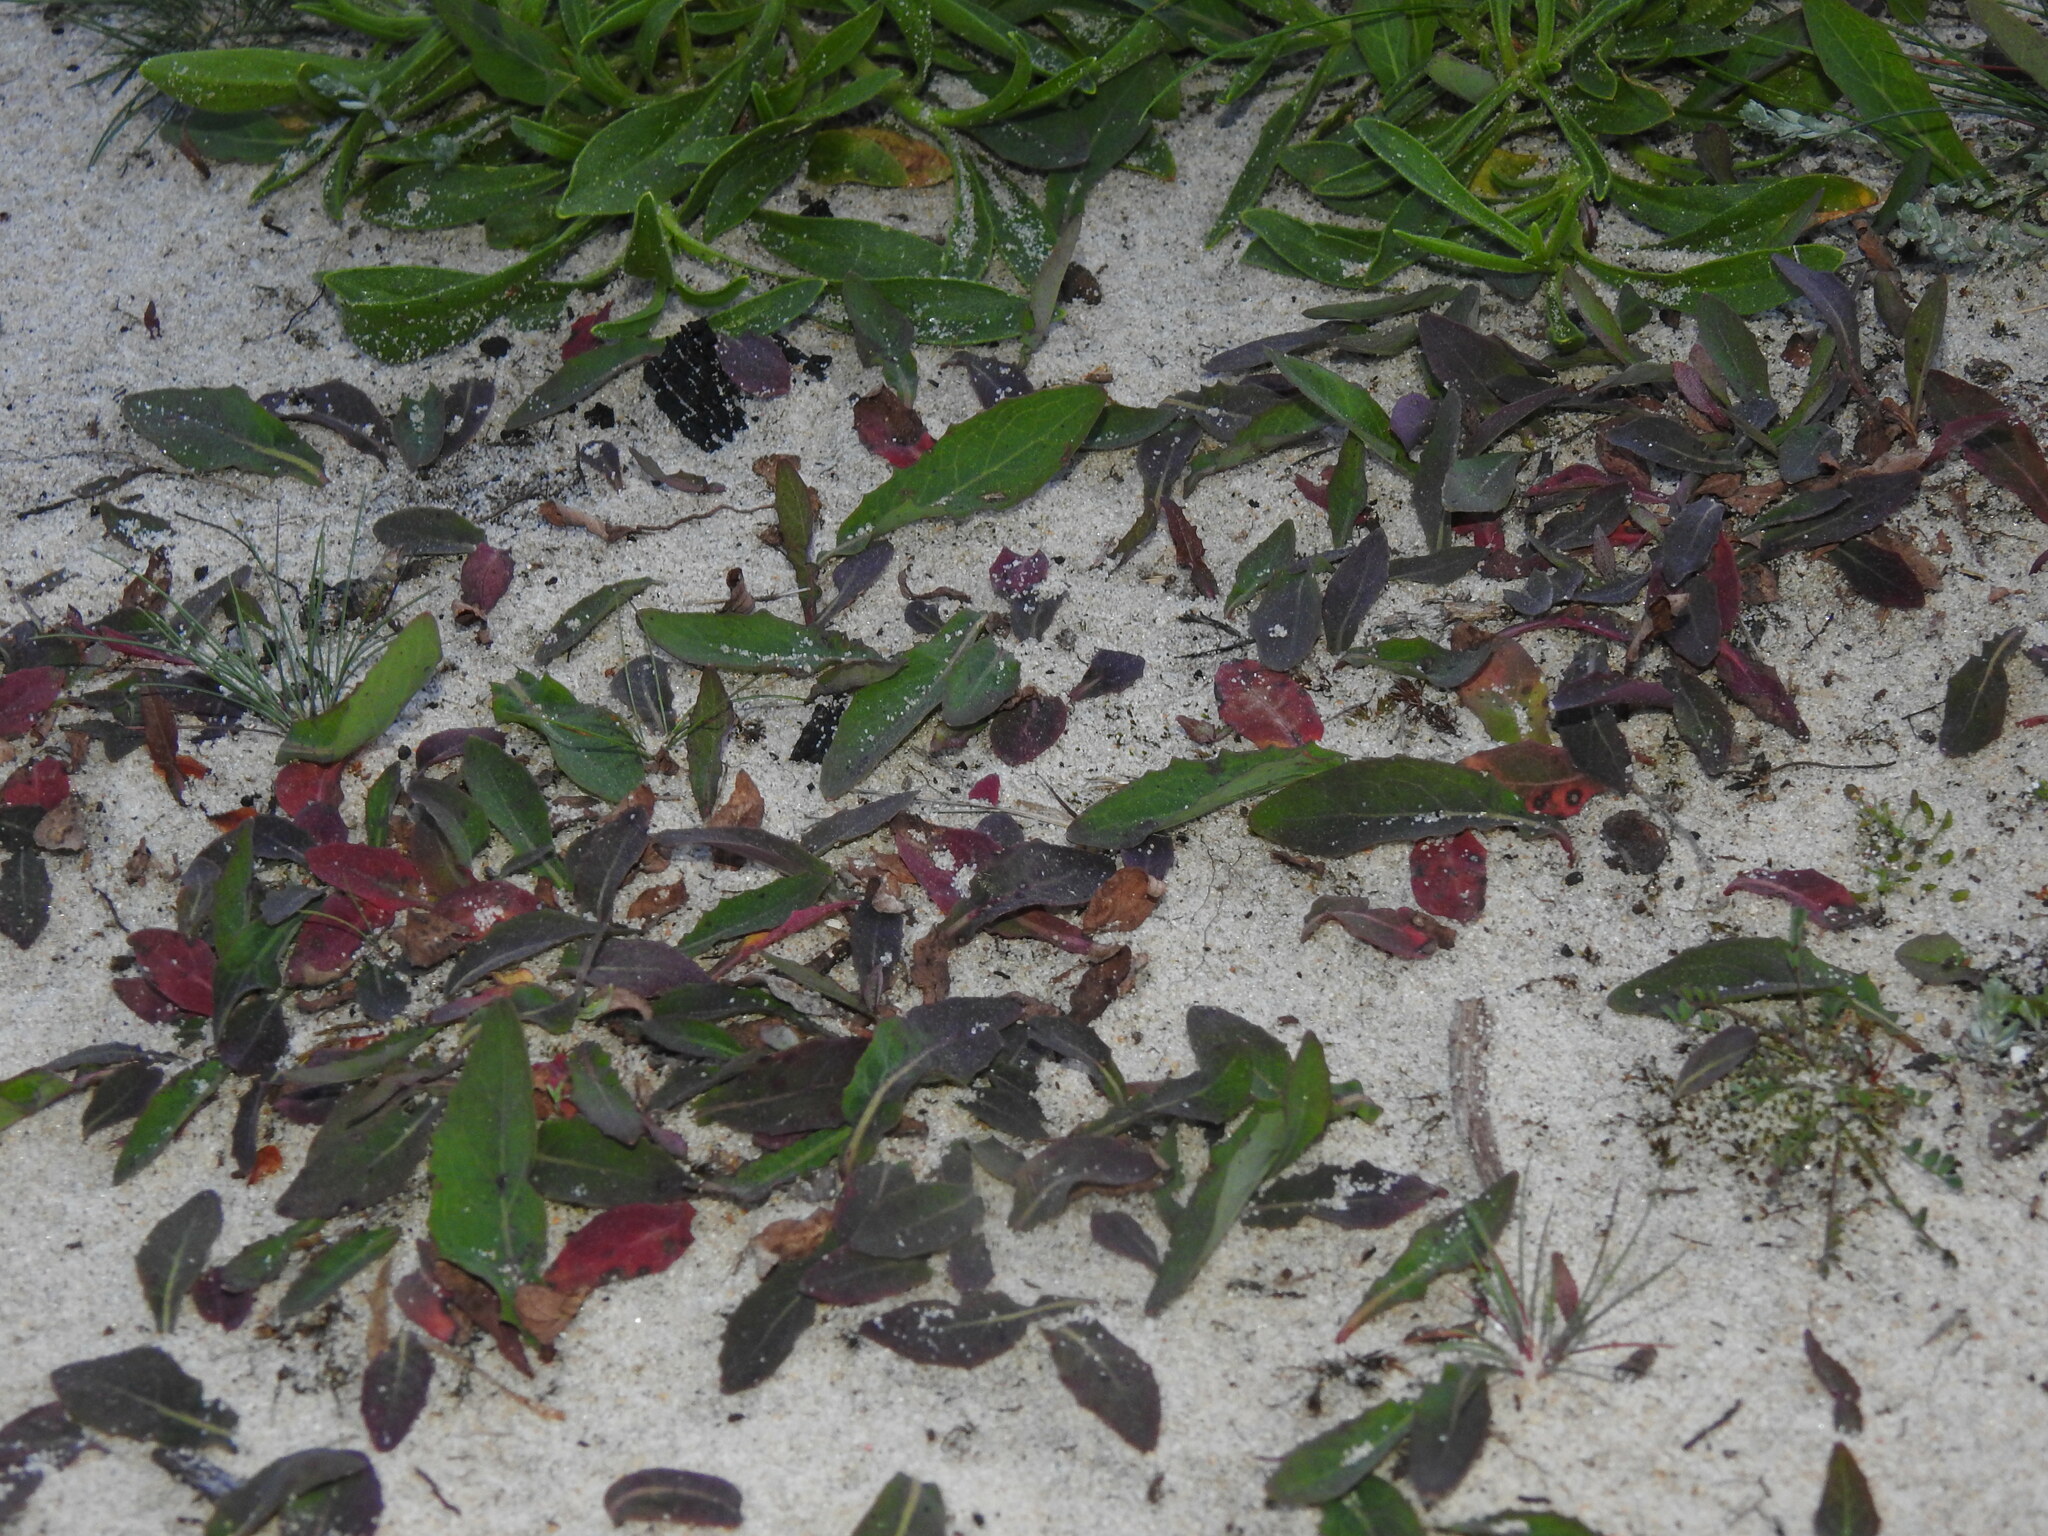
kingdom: Plantae
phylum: Tracheophyta
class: Magnoliopsida
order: Asterales
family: Asteraceae
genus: Aetheorhiza
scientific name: Aetheorhiza bulbosa
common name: Tuberous hawk's-beard
